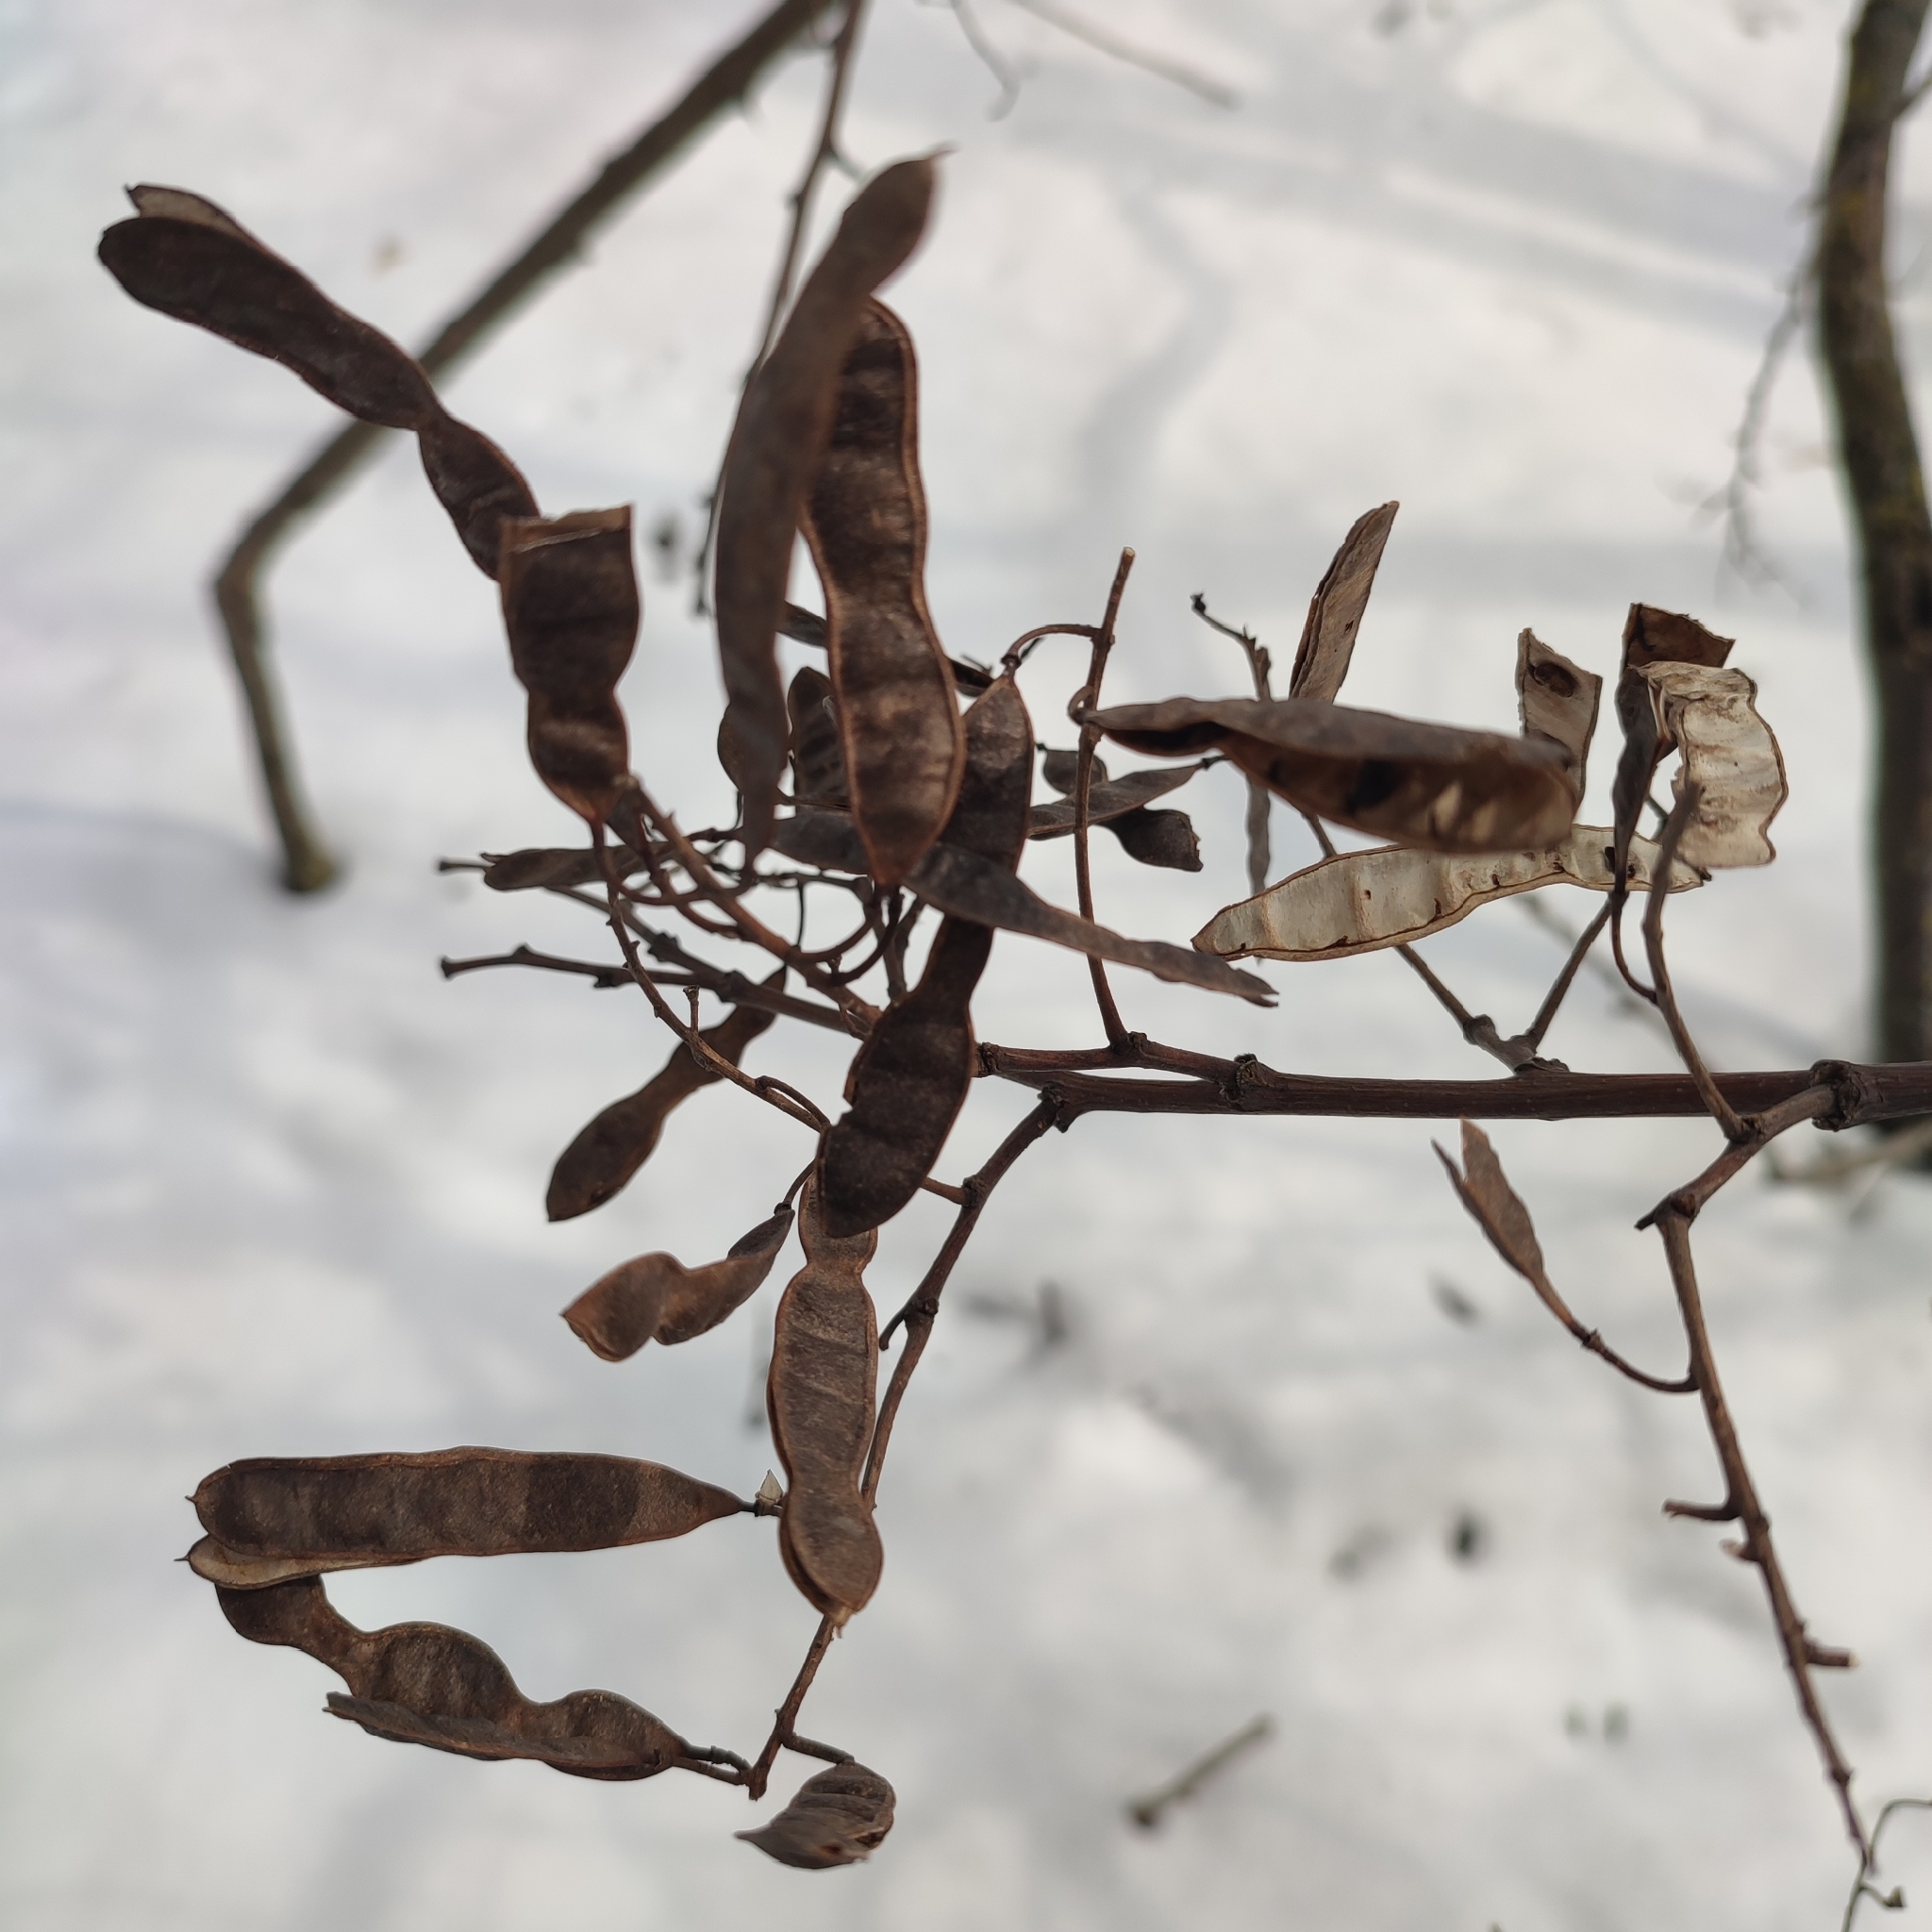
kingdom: Plantae
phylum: Tracheophyta
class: Magnoliopsida
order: Fabales
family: Fabaceae
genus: Robinia
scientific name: Robinia pseudoacacia
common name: Black locust
